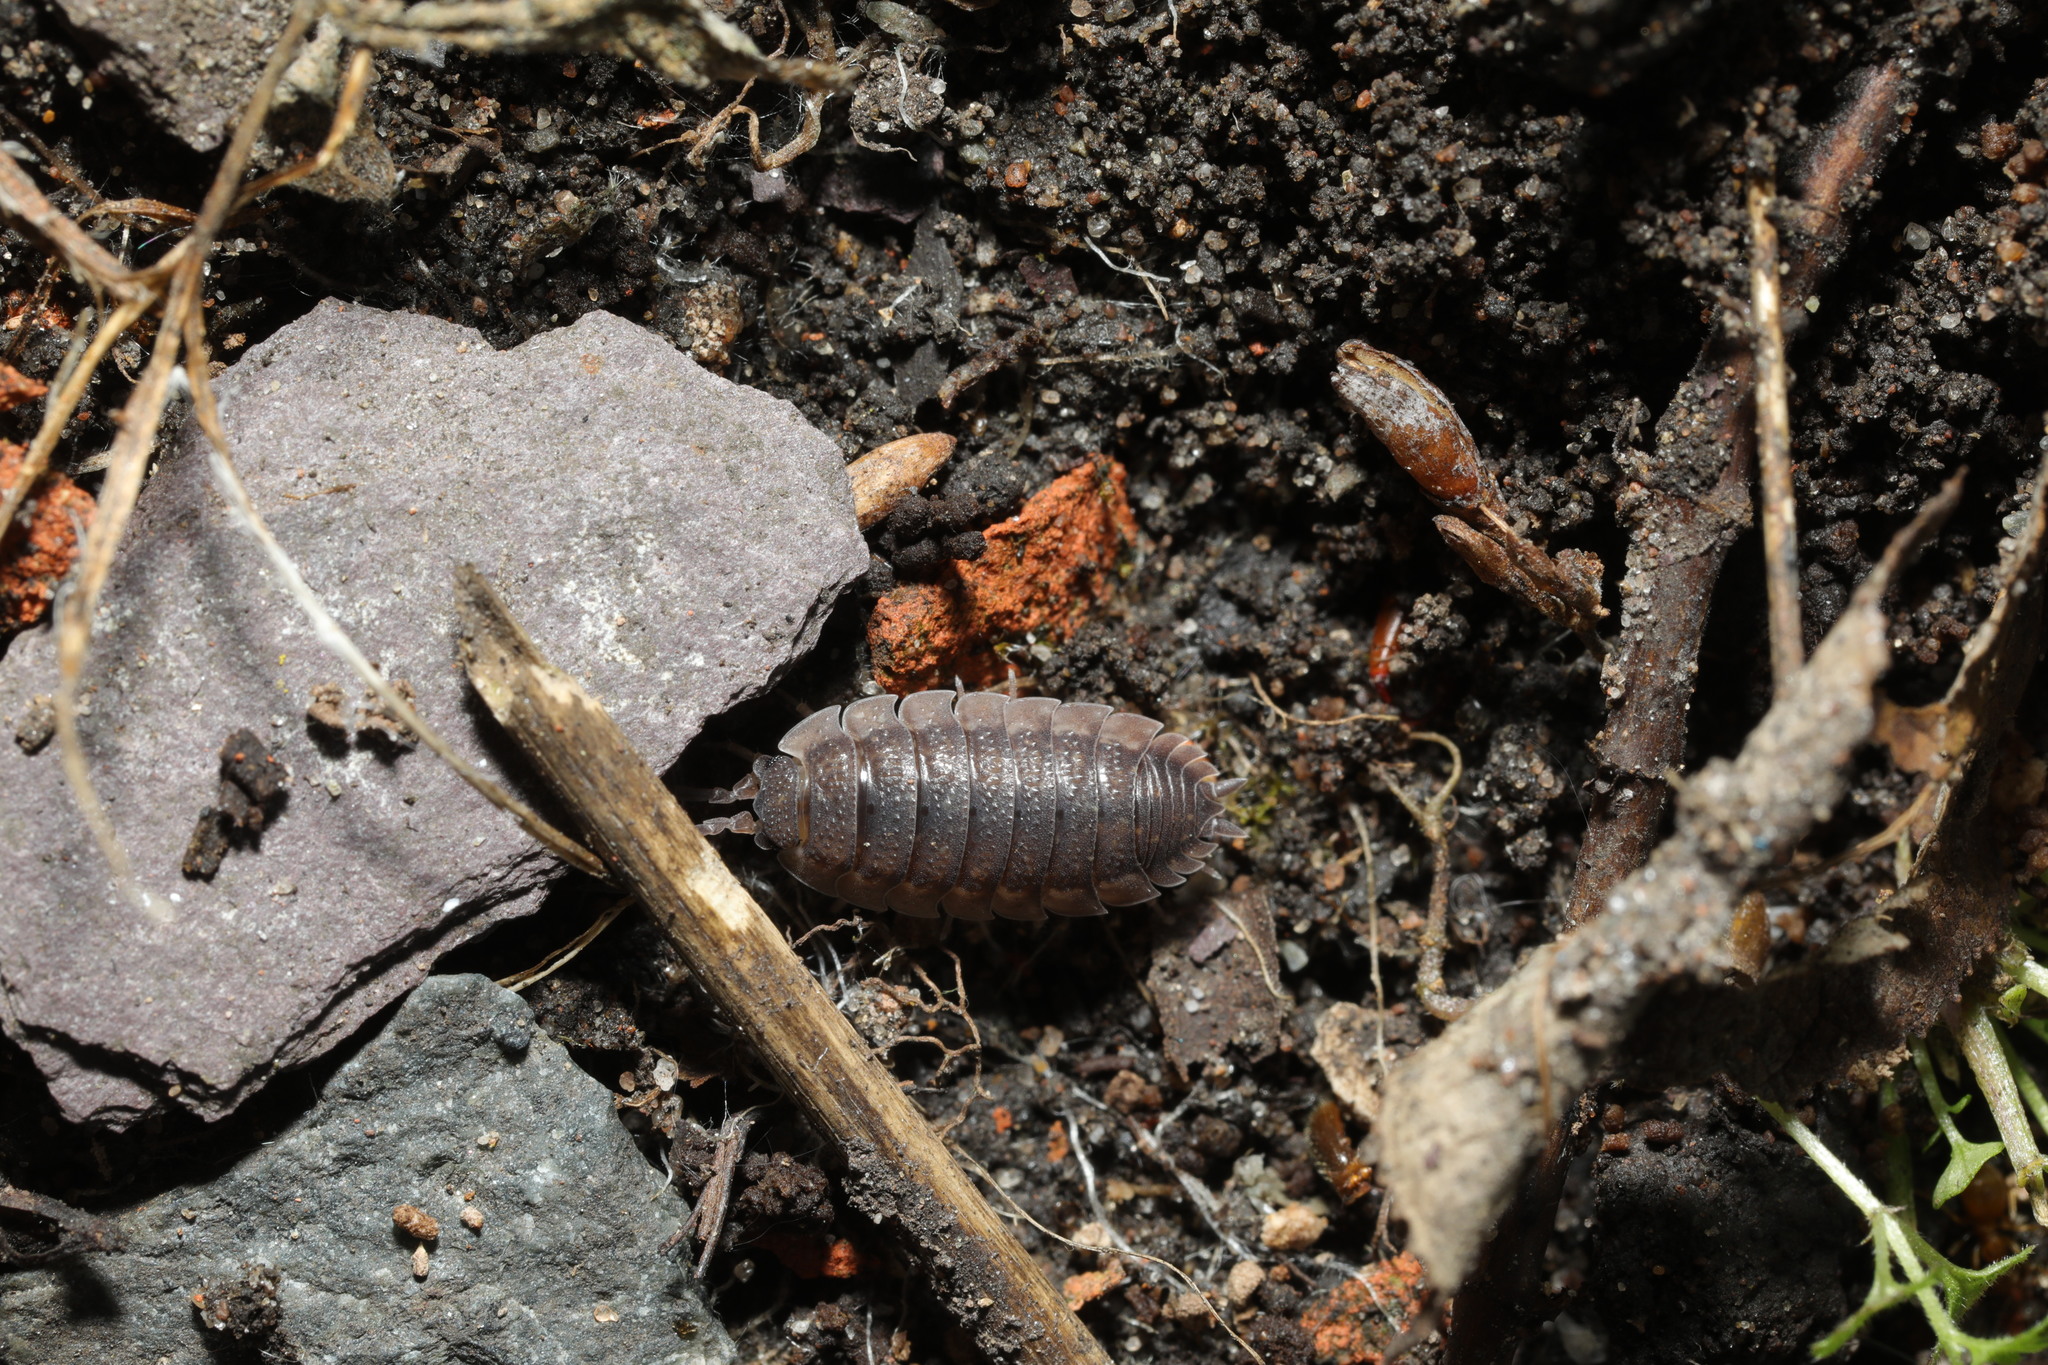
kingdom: Animalia
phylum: Arthropoda
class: Malacostraca
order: Isopoda
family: Porcellionidae
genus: Porcellio
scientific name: Porcellio scaber
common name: Common rough woodlouse
